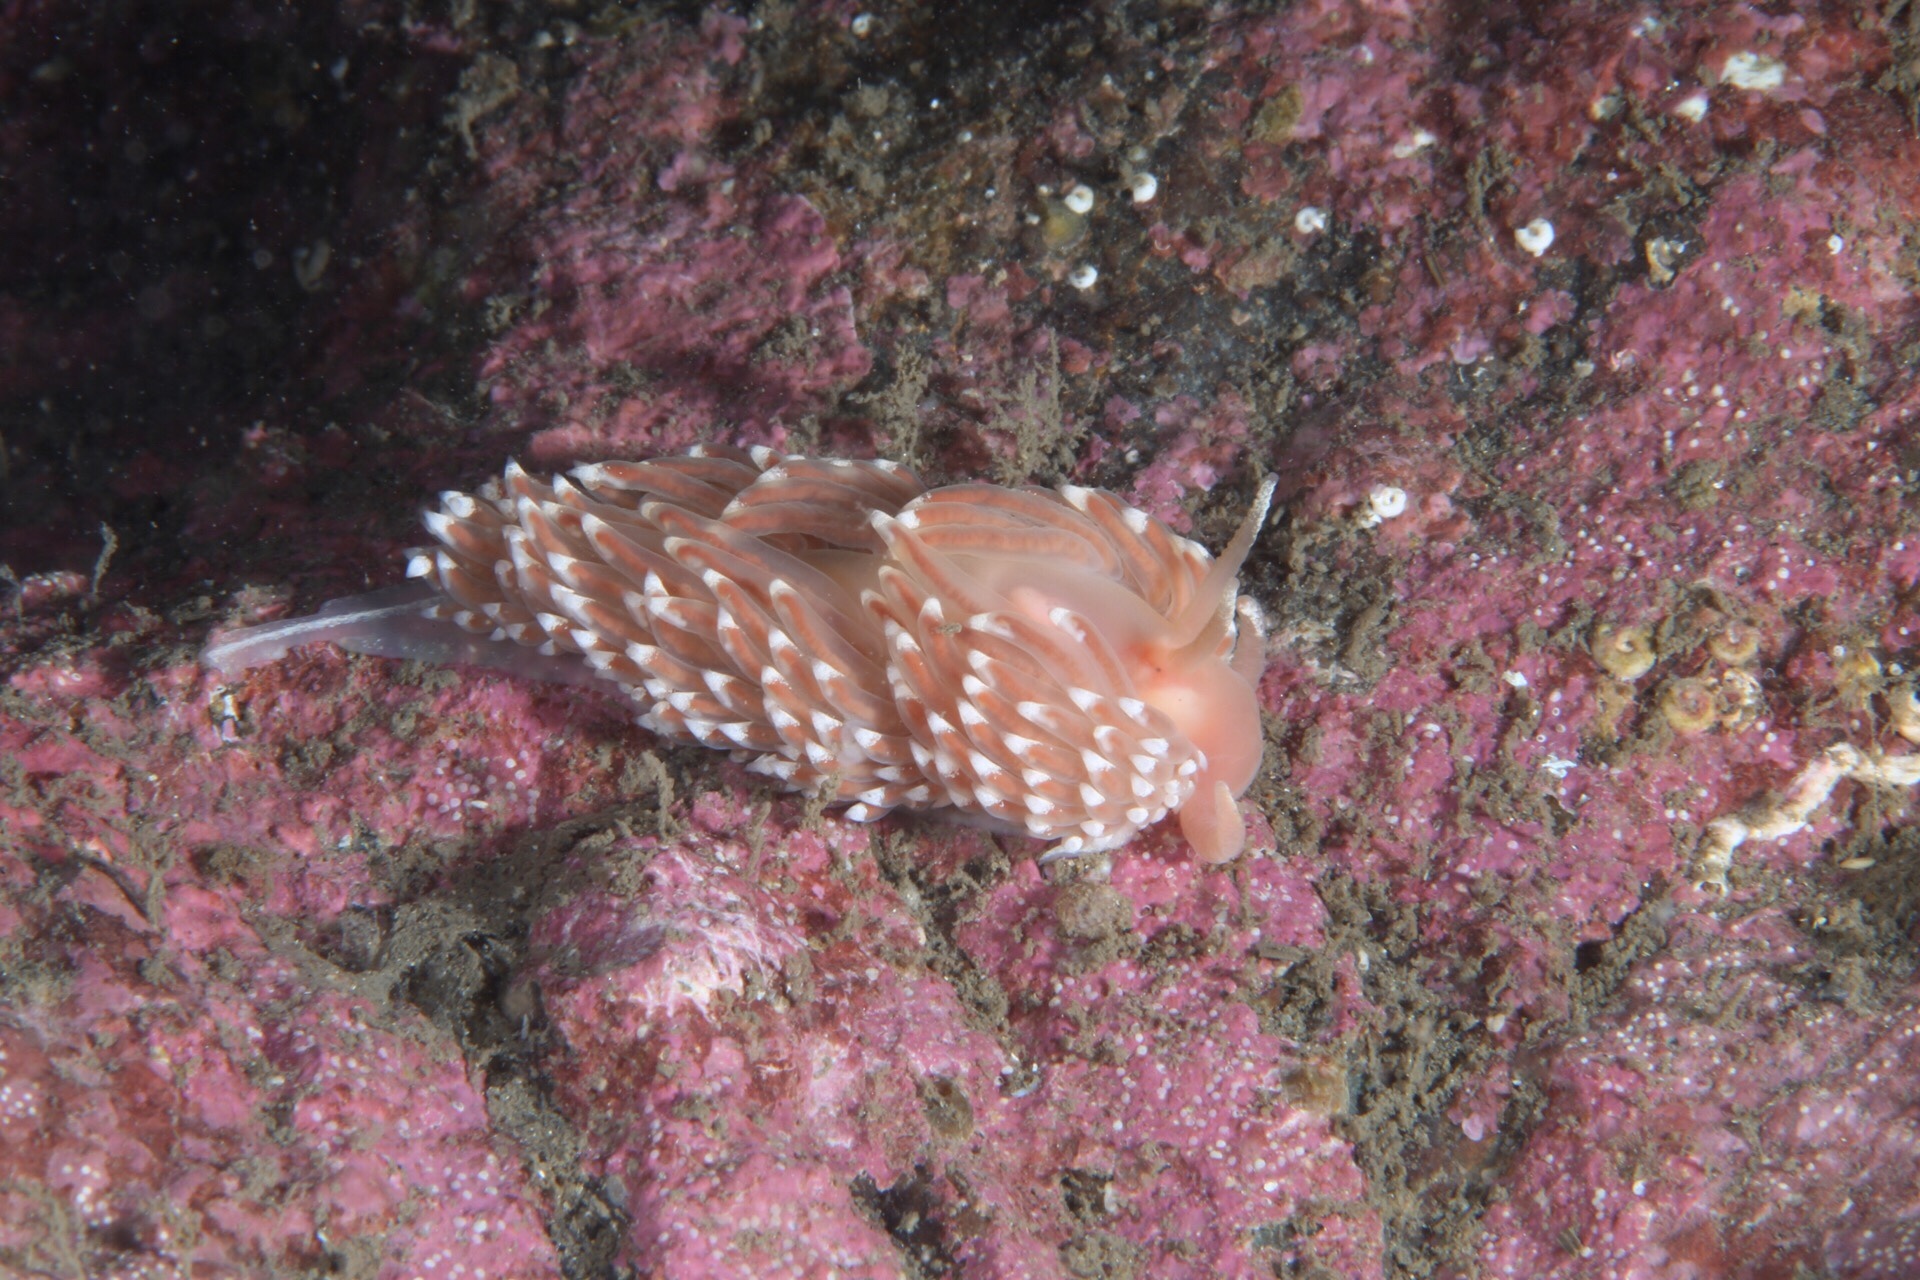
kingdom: Animalia
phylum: Mollusca
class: Gastropoda
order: Nudibranchia
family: Facelinidae
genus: Facelina
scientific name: Facelina bostoniensis
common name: Boston facelina
